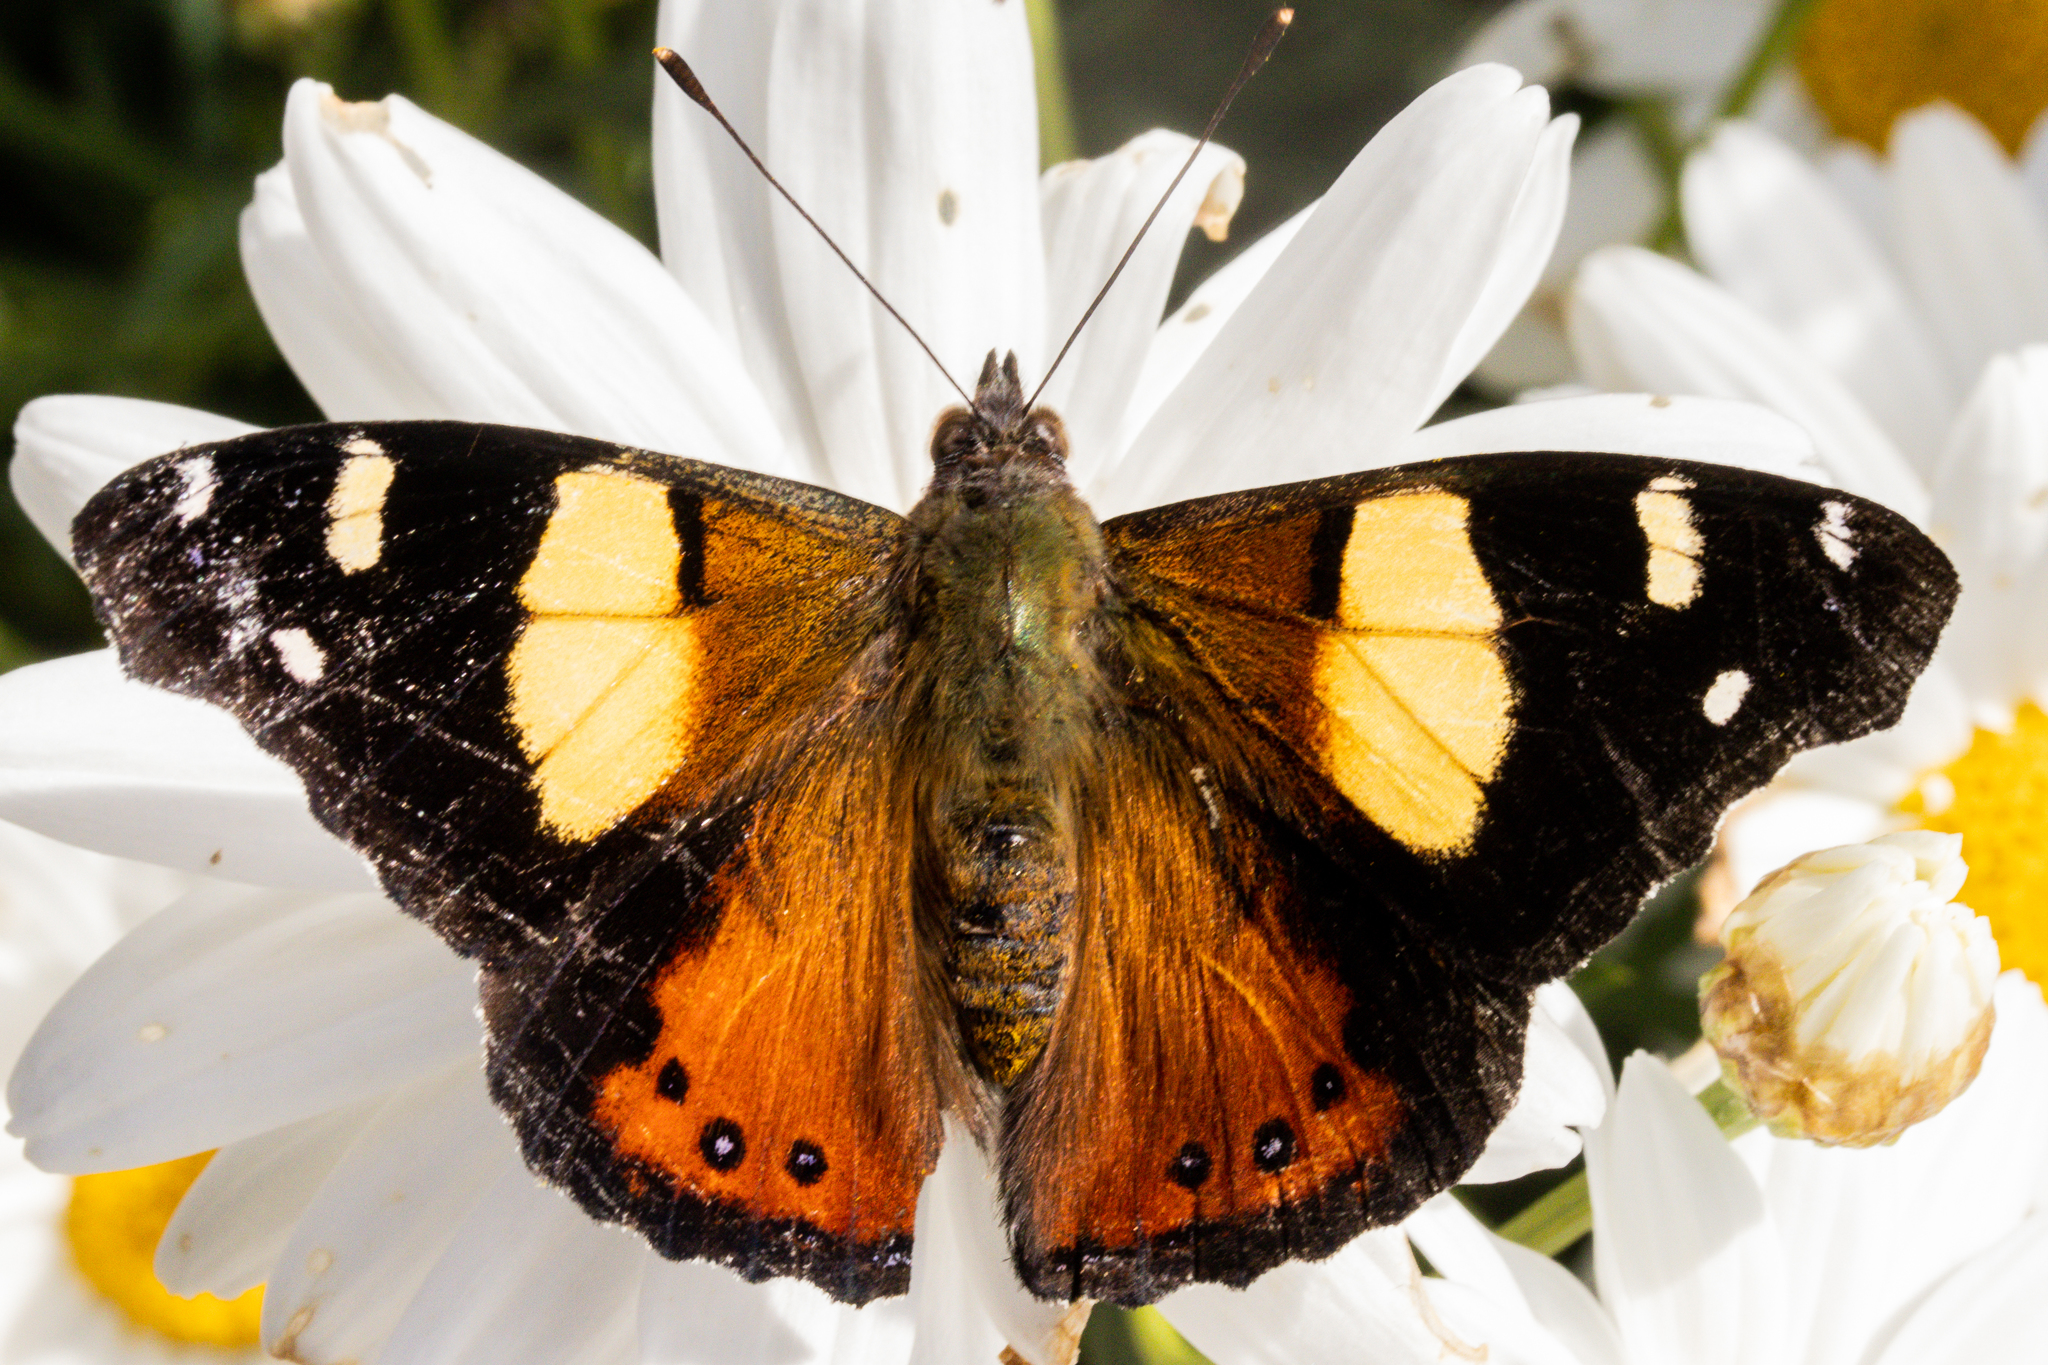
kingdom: Animalia
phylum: Arthropoda
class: Insecta
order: Lepidoptera
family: Nymphalidae
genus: Vanessa
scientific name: Vanessa itea
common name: Yellow admiral
